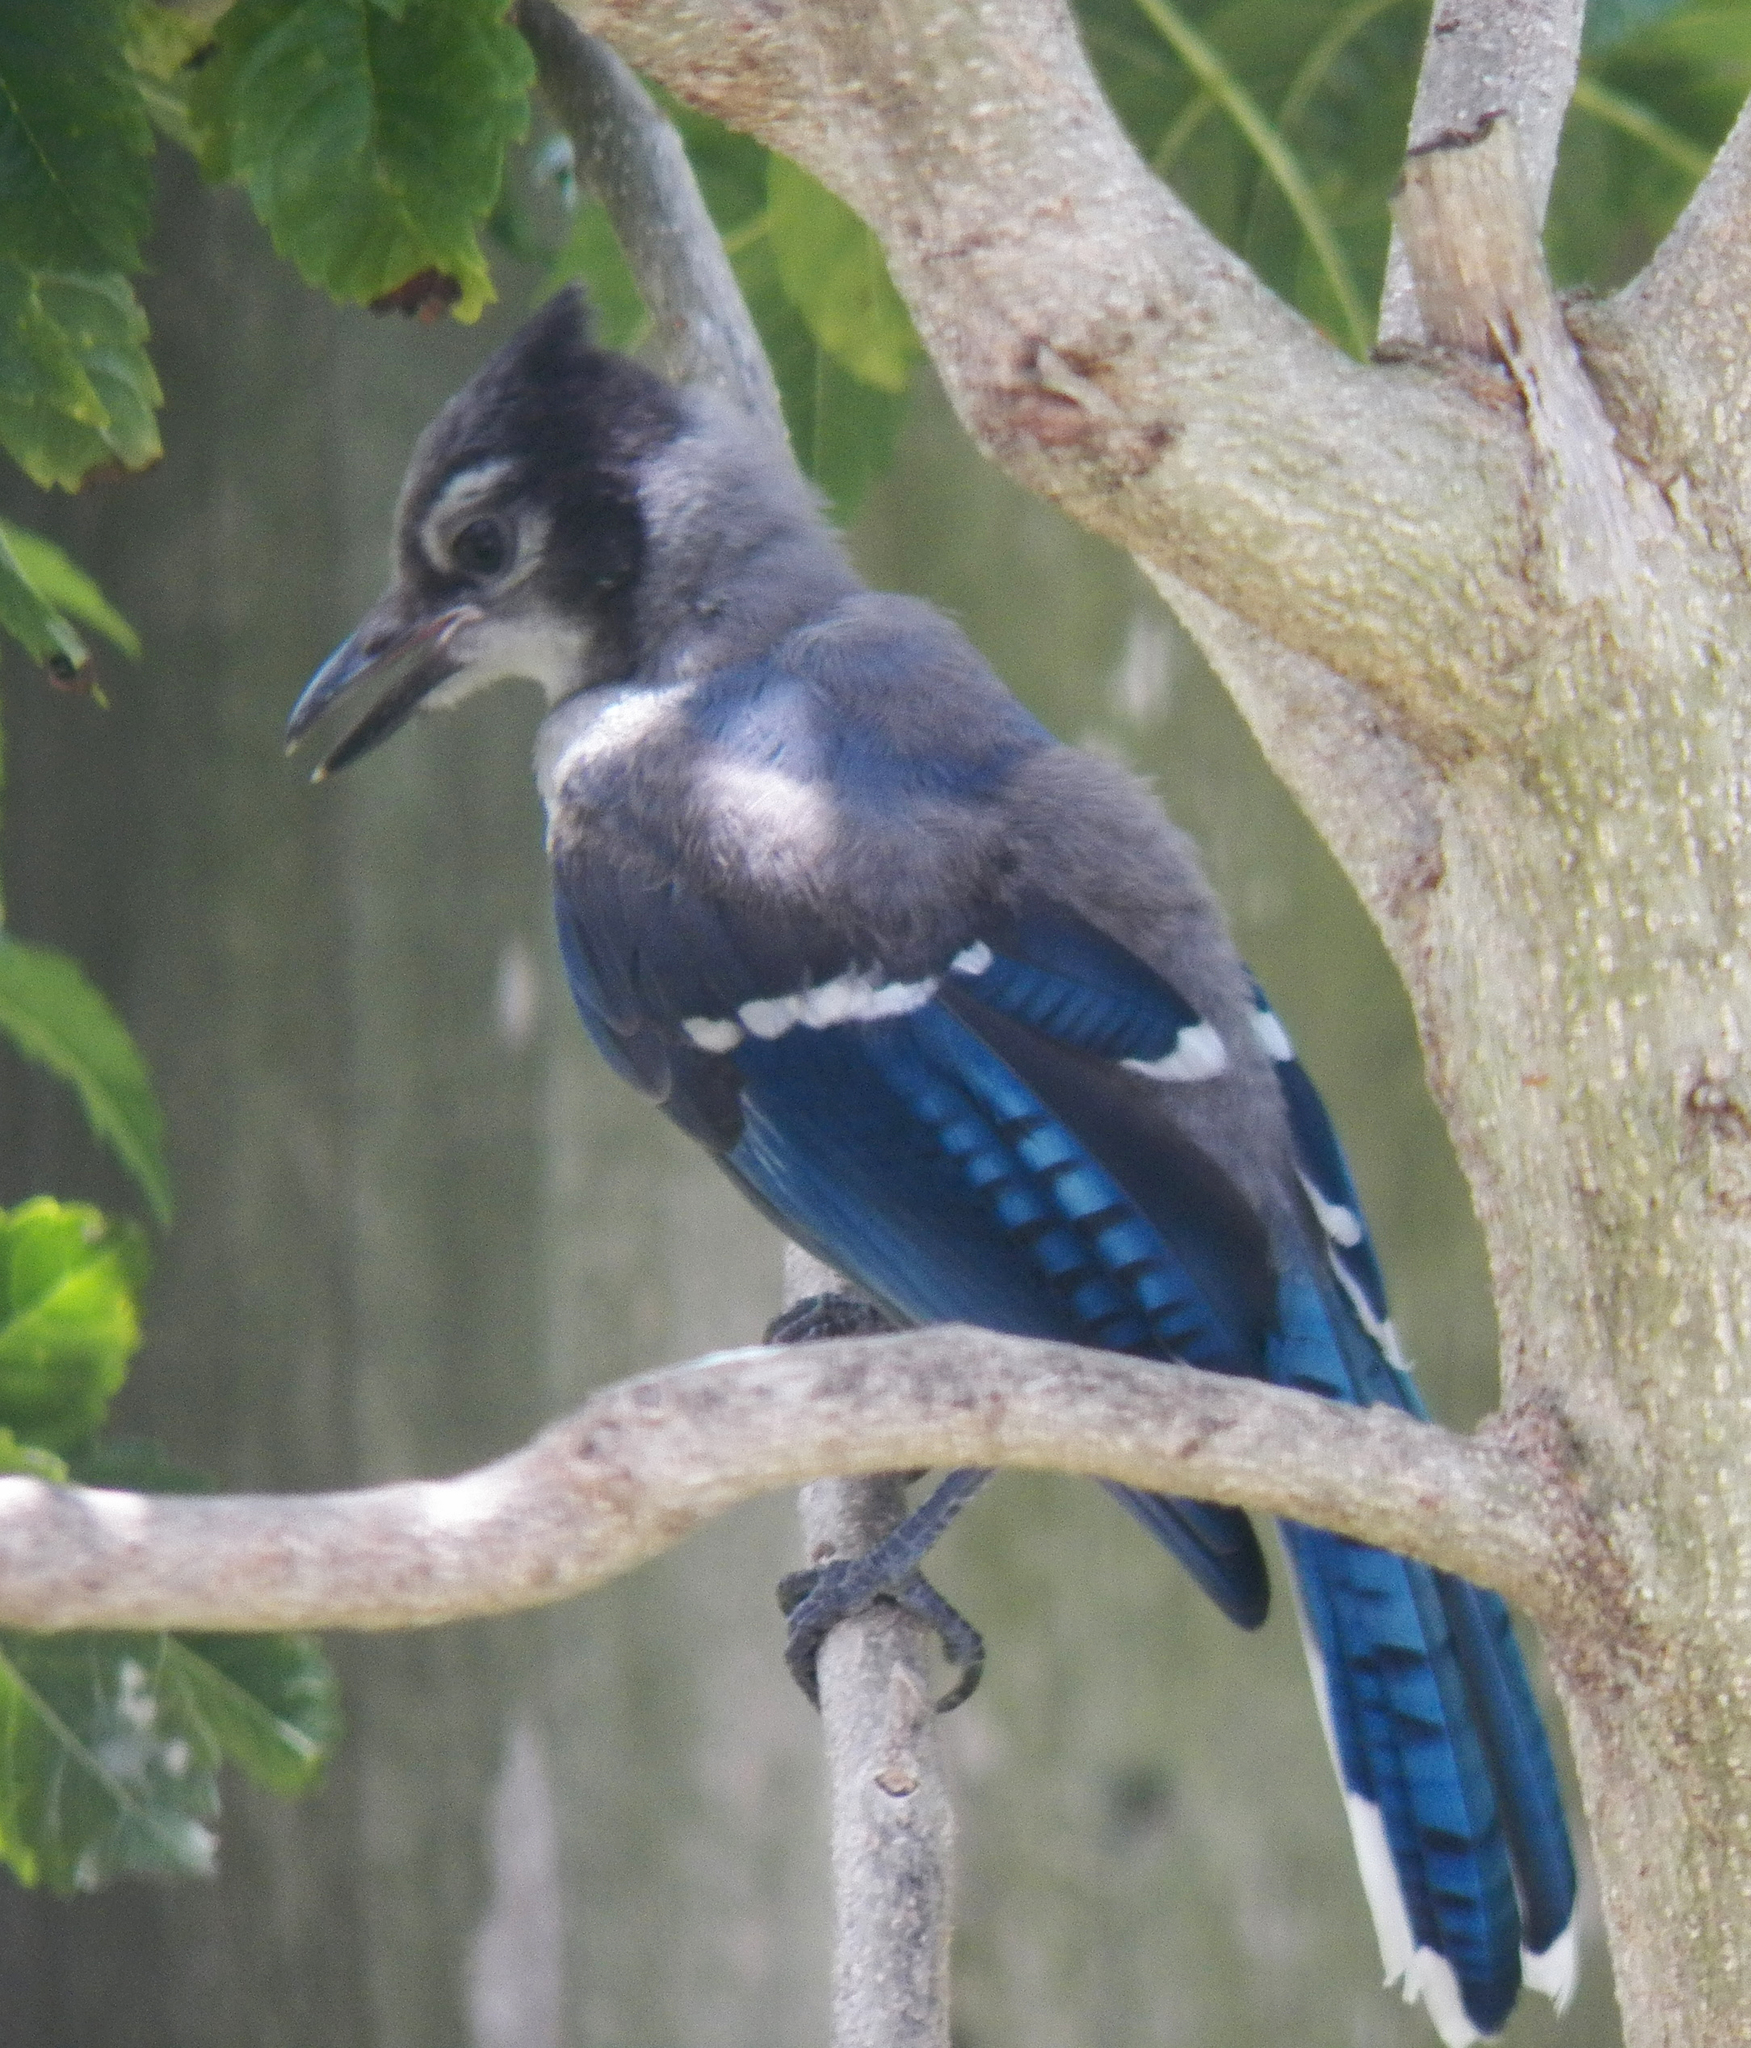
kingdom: Animalia
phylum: Chordata
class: Aves
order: Passeriformes
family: Corvidae
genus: Cyanocitta
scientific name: Cyanocitta cristata
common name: Blue jay
